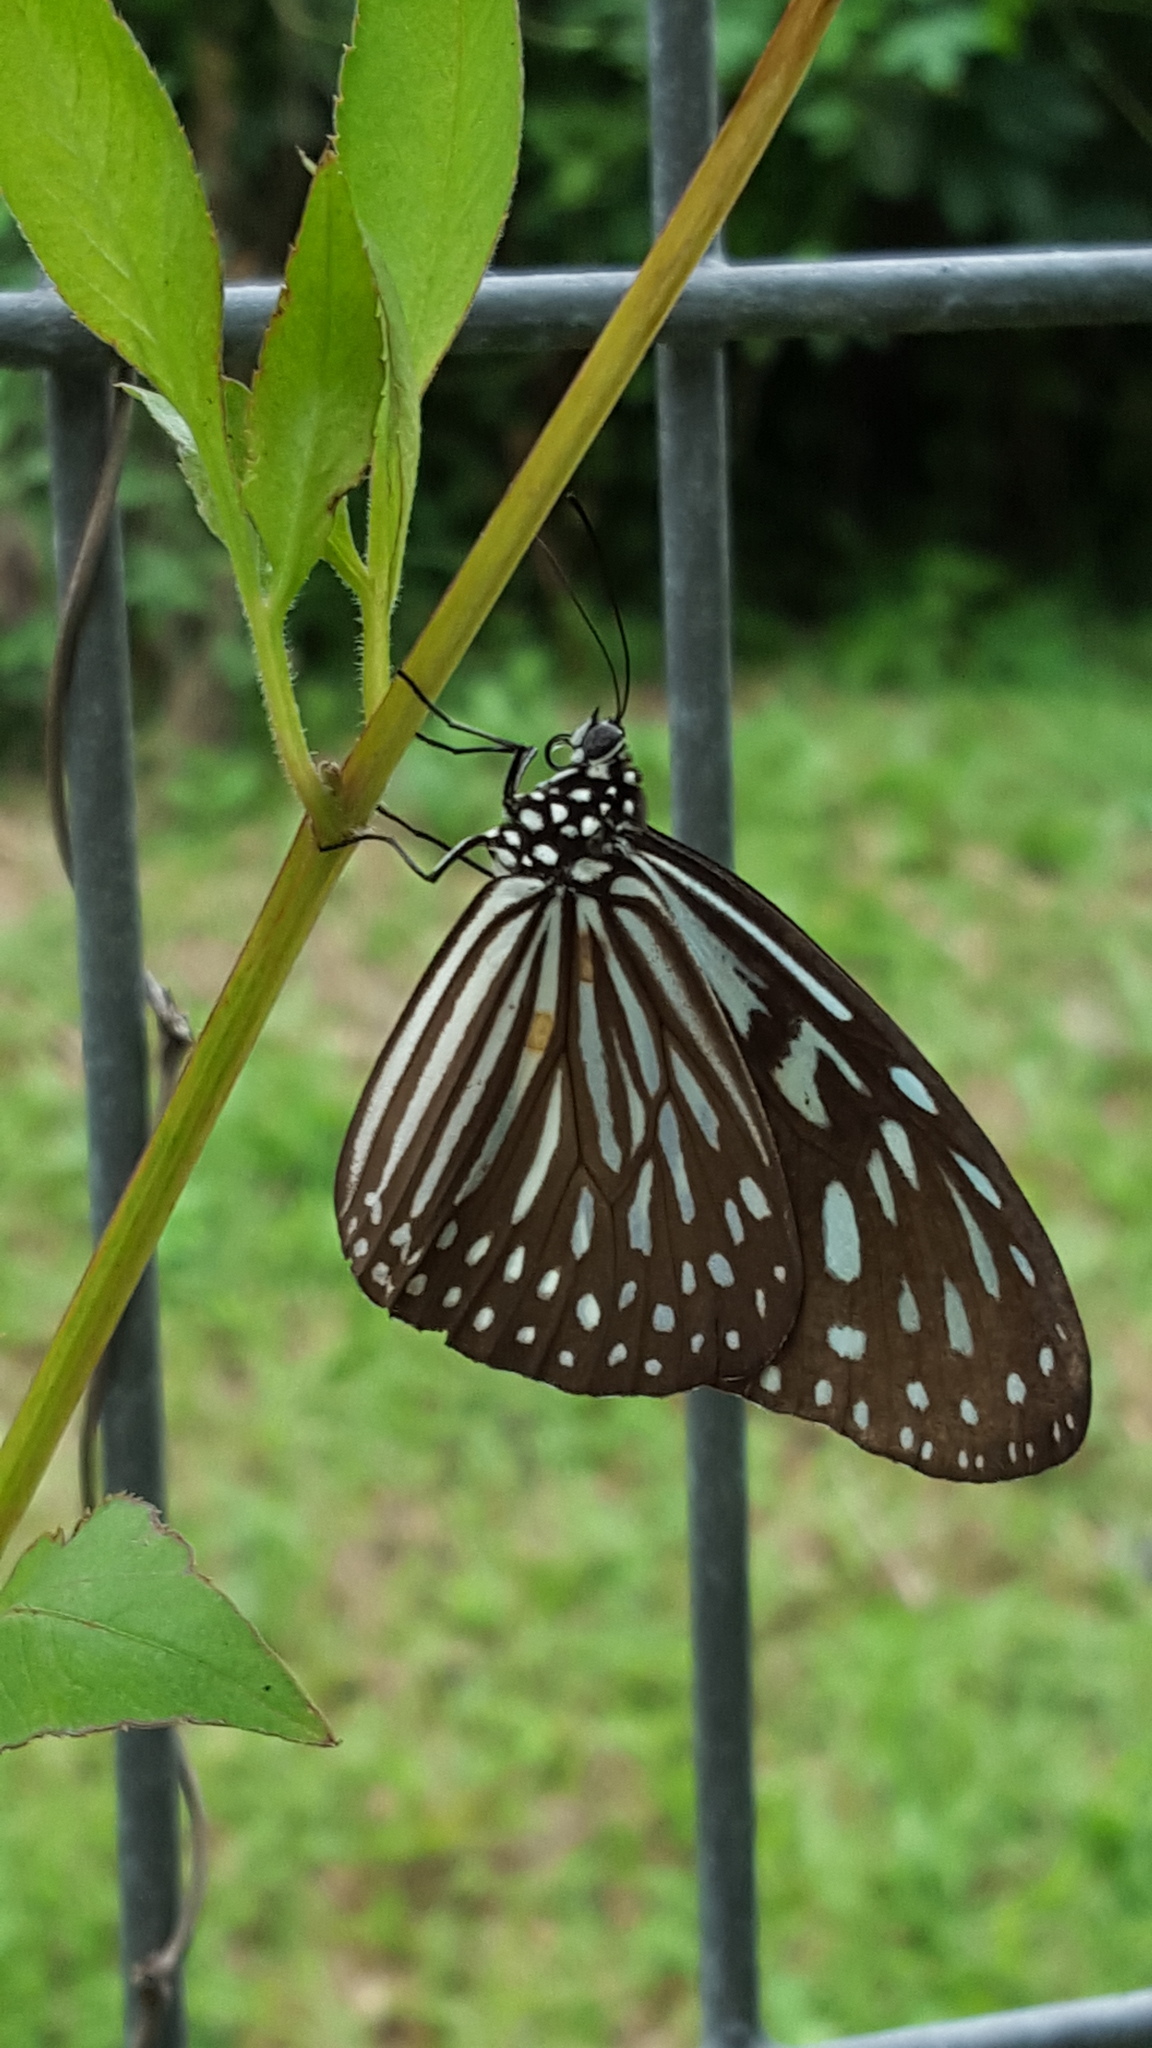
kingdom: Animalia
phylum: Arthropoda
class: Insecta
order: Lepidoptera
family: Nymphalidae
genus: Ideopsis
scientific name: Ideopsis vulgaris
